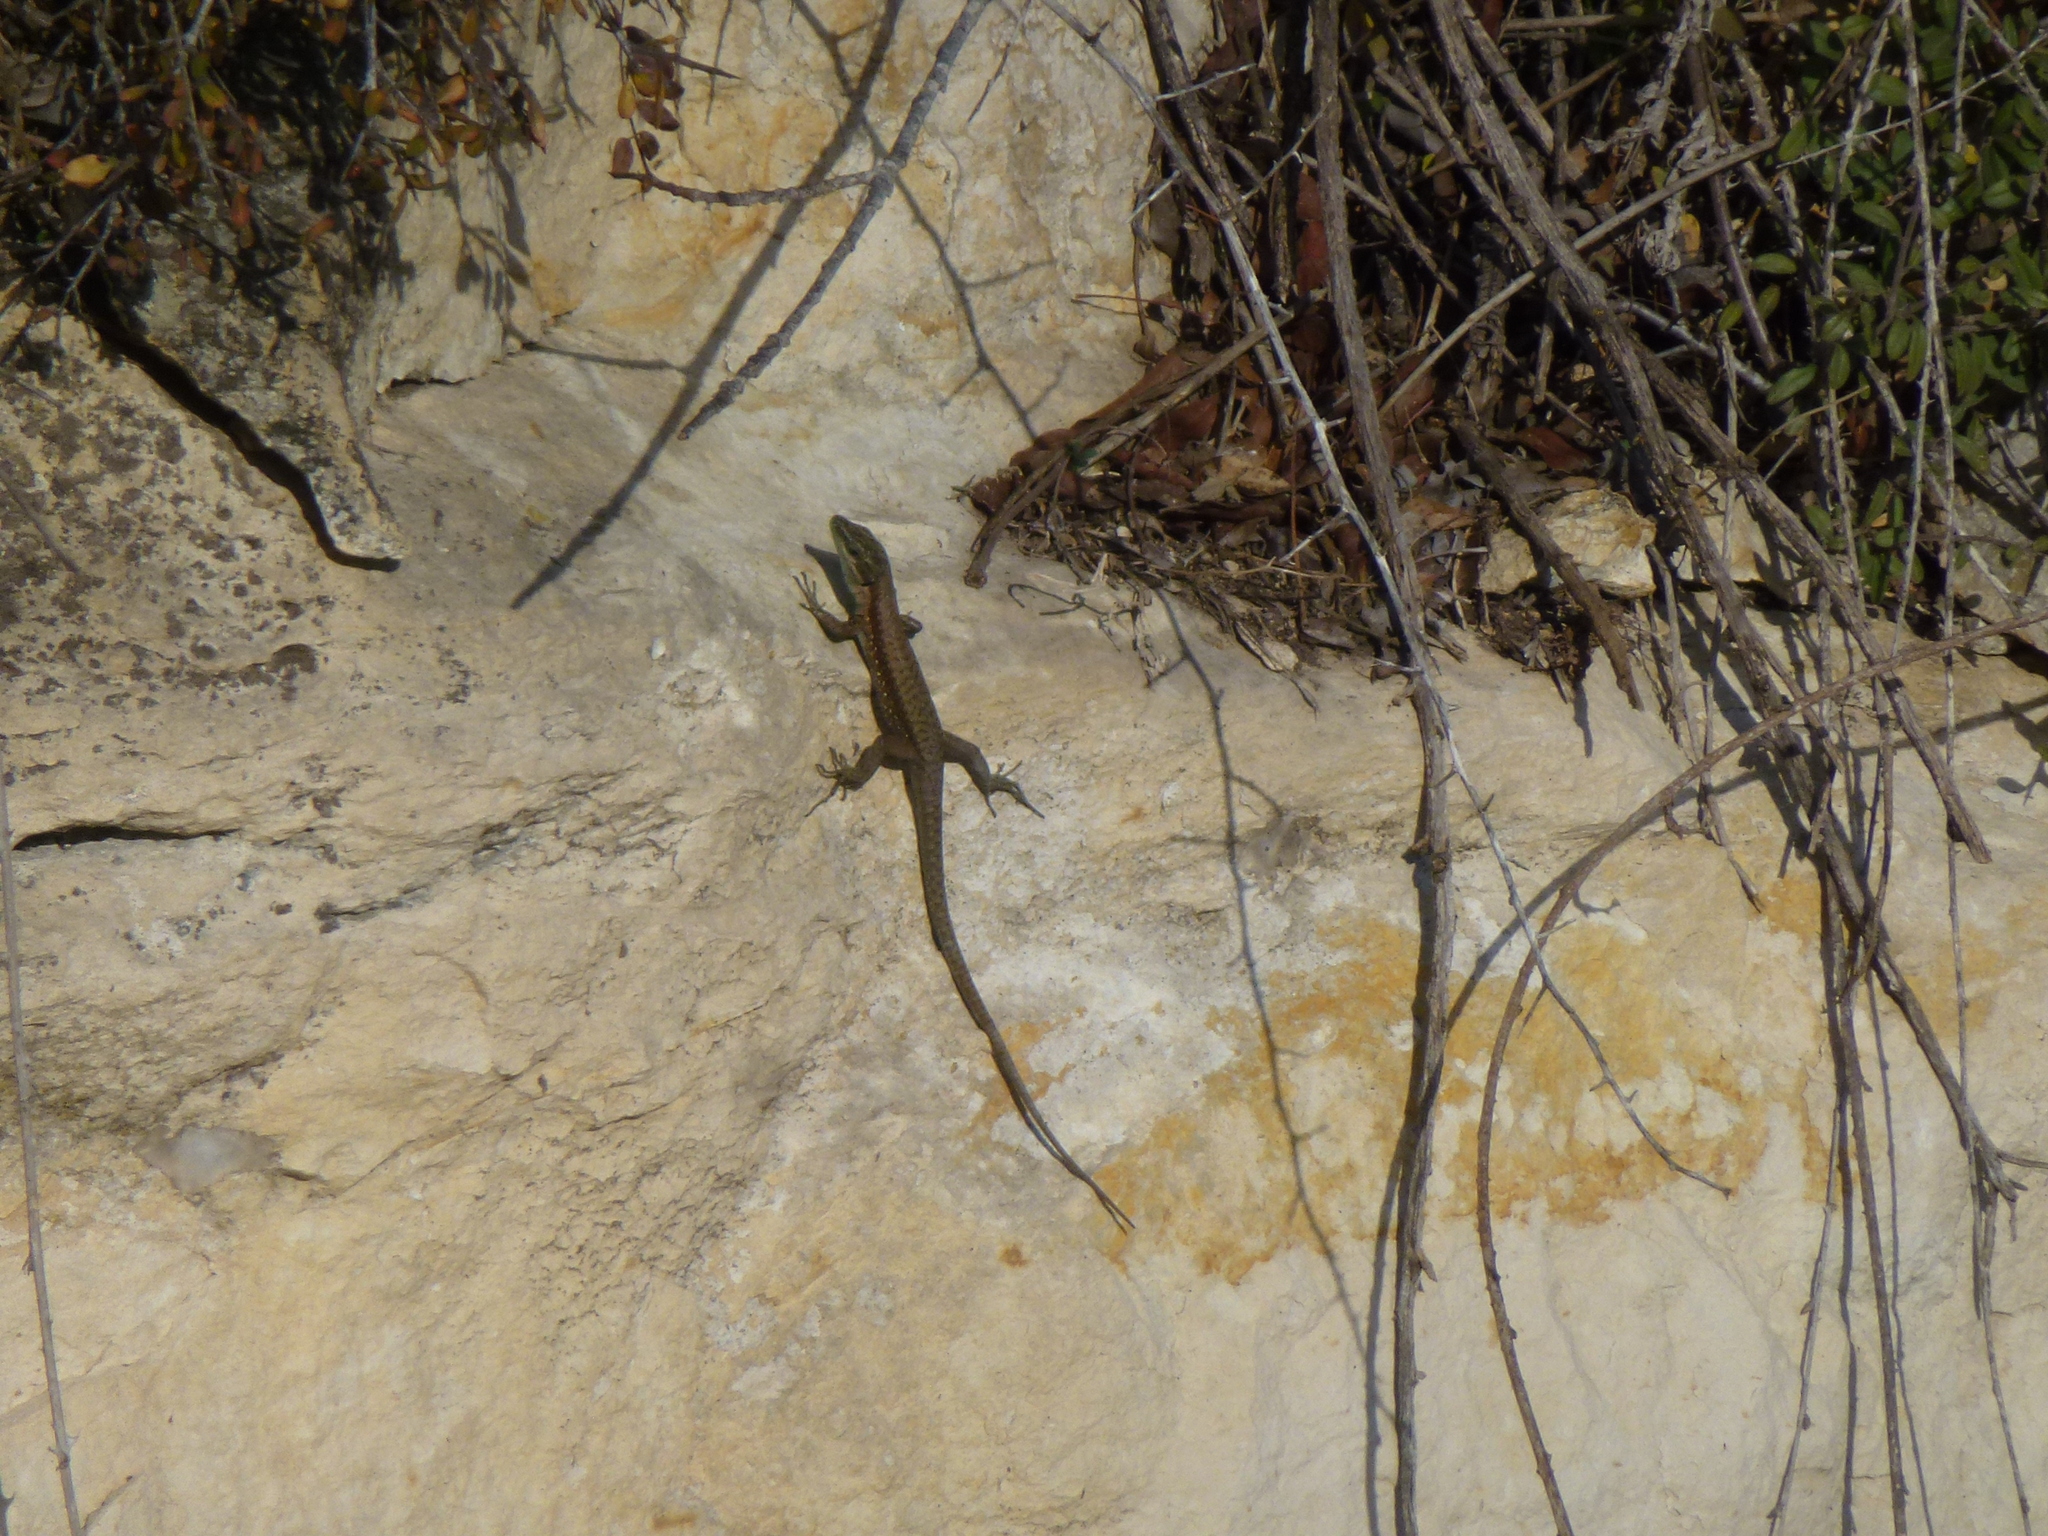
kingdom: Animalia
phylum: Chordata
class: Squamata
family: Lacertidae
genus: Phoenicolacerta
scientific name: Phoenicolacerta laevis
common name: Lebanon lizard
